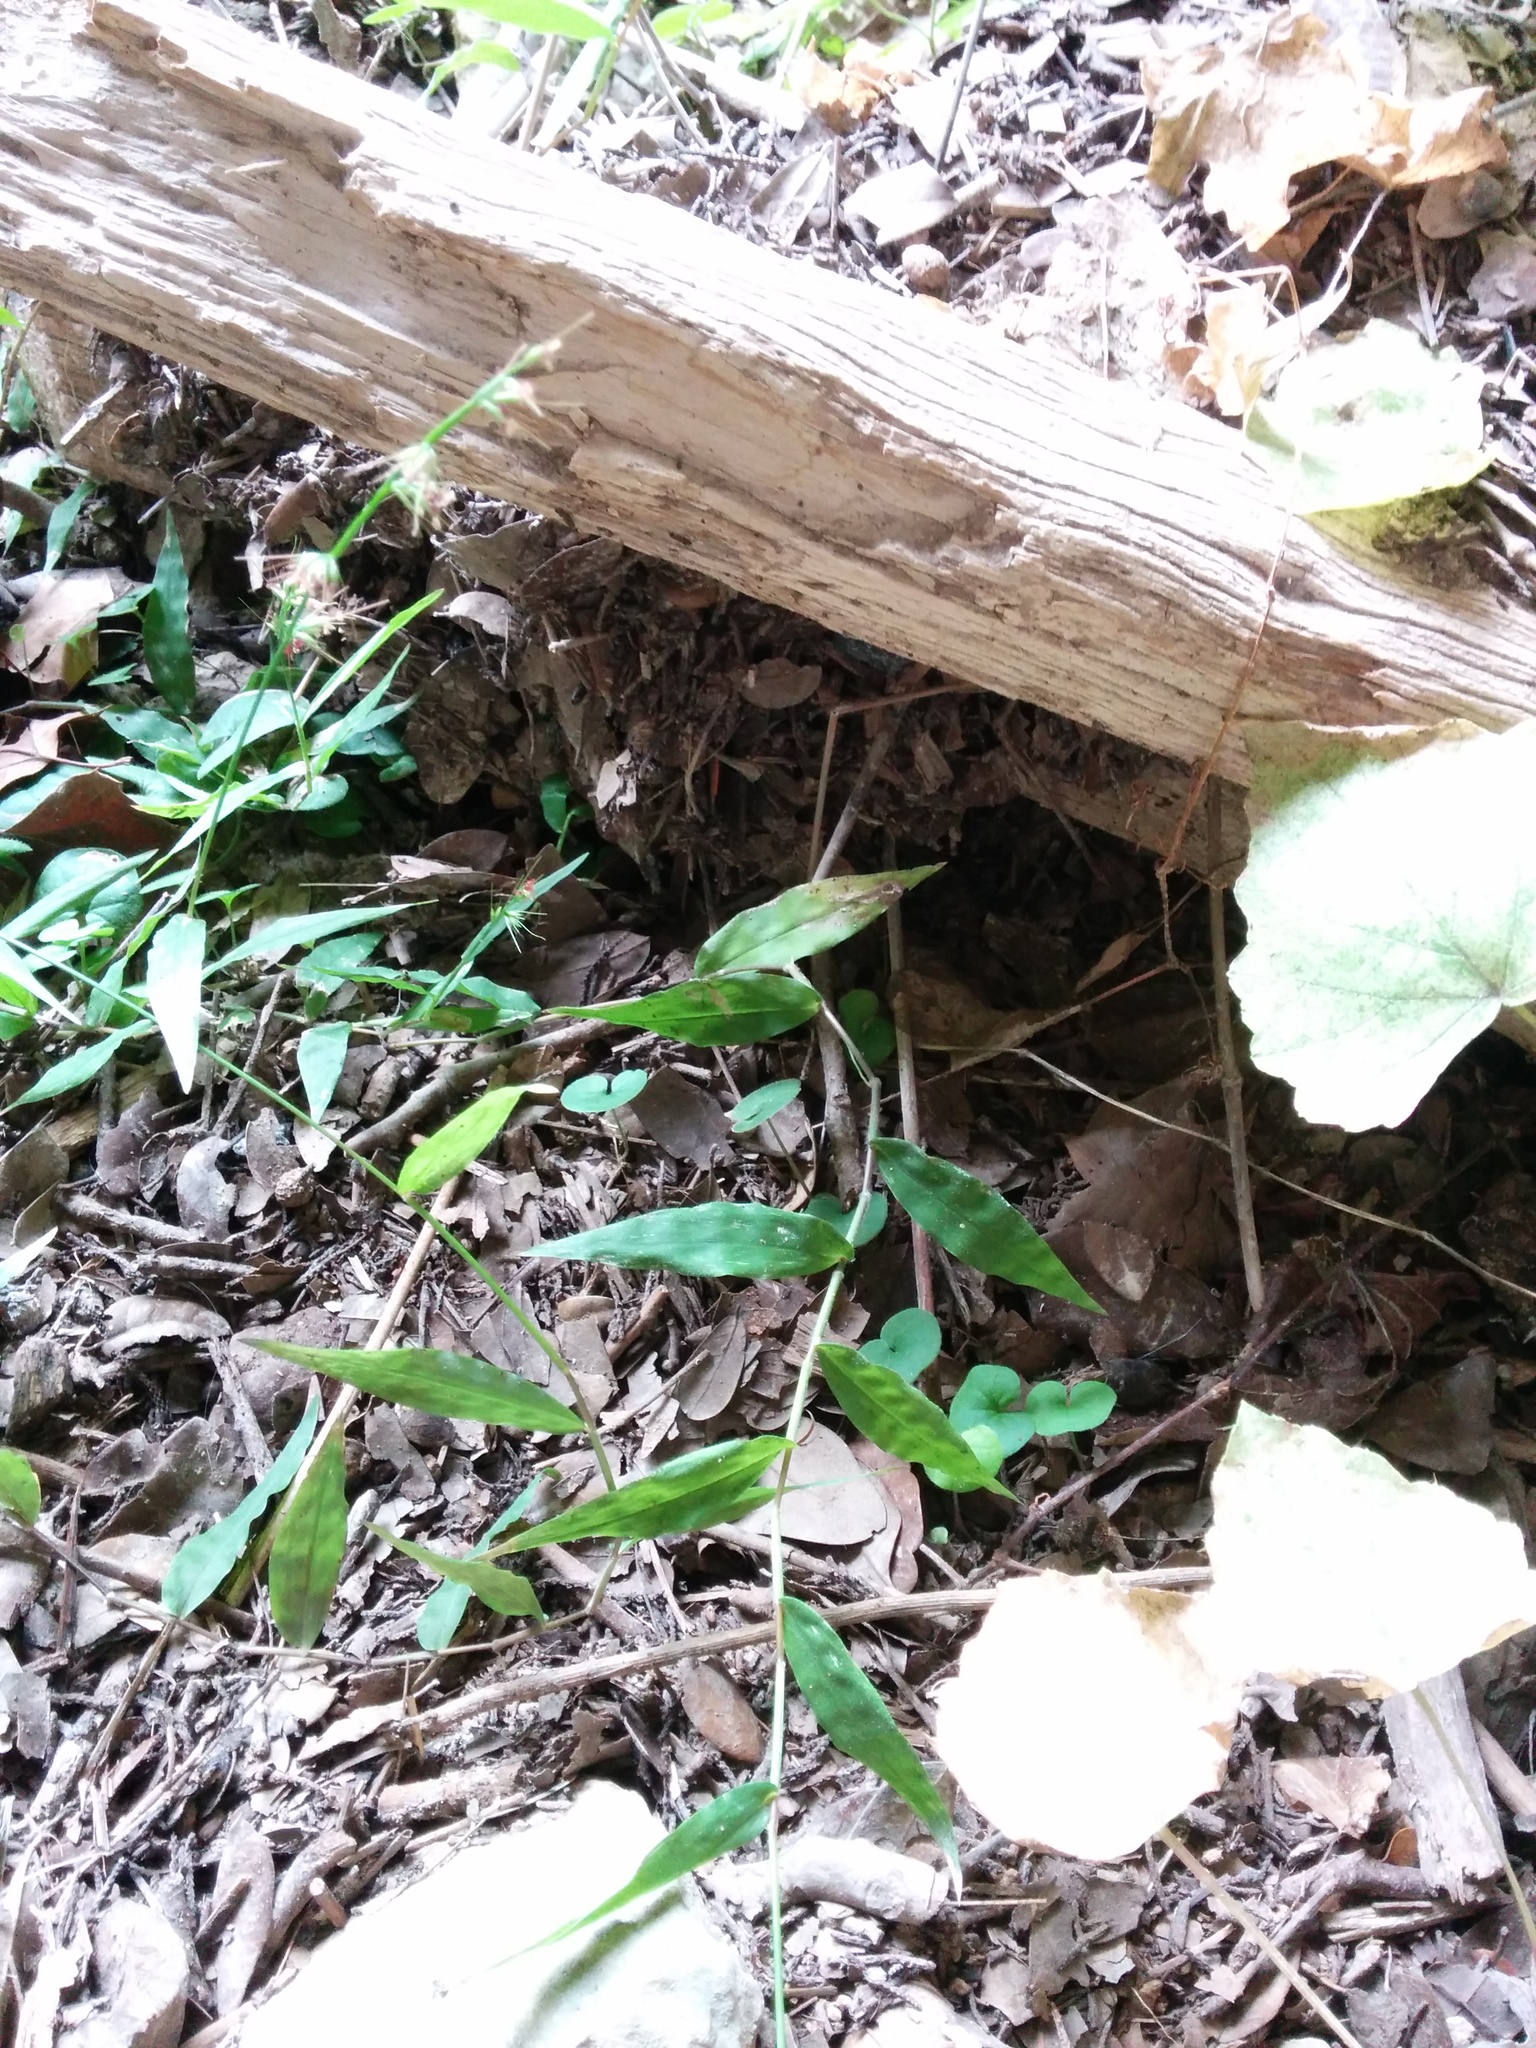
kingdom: Plantae
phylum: Tracheophyta
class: Liliopsida
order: Poales
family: Poaceae
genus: Oplismenus
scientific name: Oplismenus hirtellus
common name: Basketgrass
